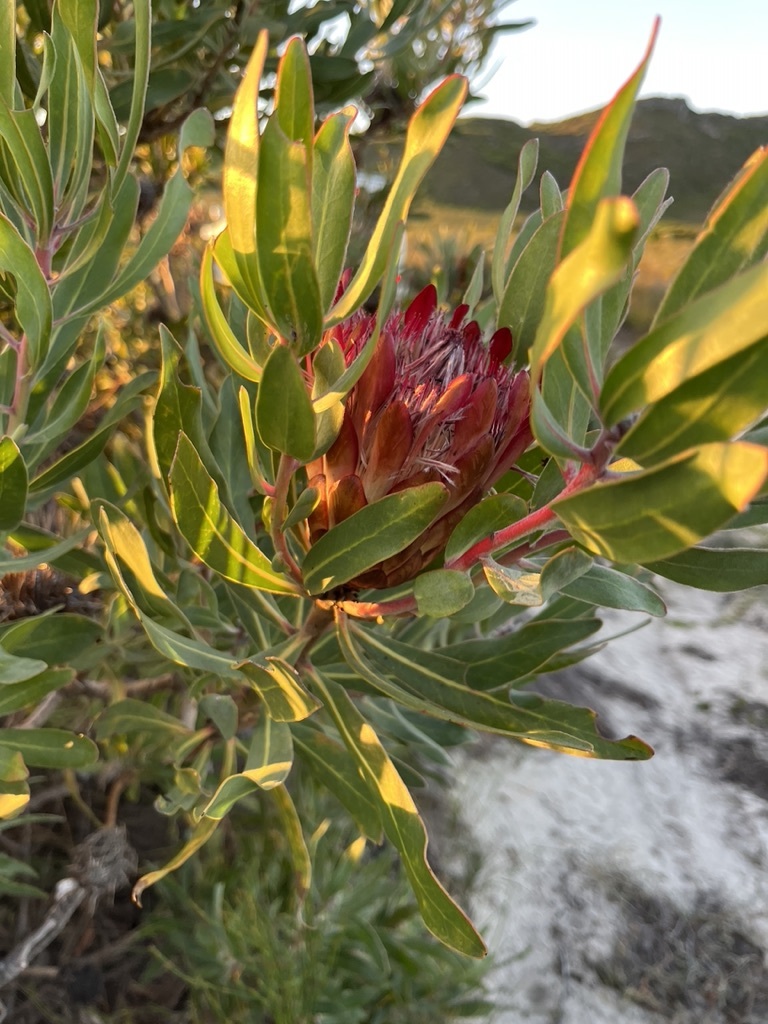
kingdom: Plantae
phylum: Tracheophyta
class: Magnoliopsida
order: Proteales
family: Proteaceae
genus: Protea
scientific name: Protea susannae
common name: Foetid-leaf sugarbush
